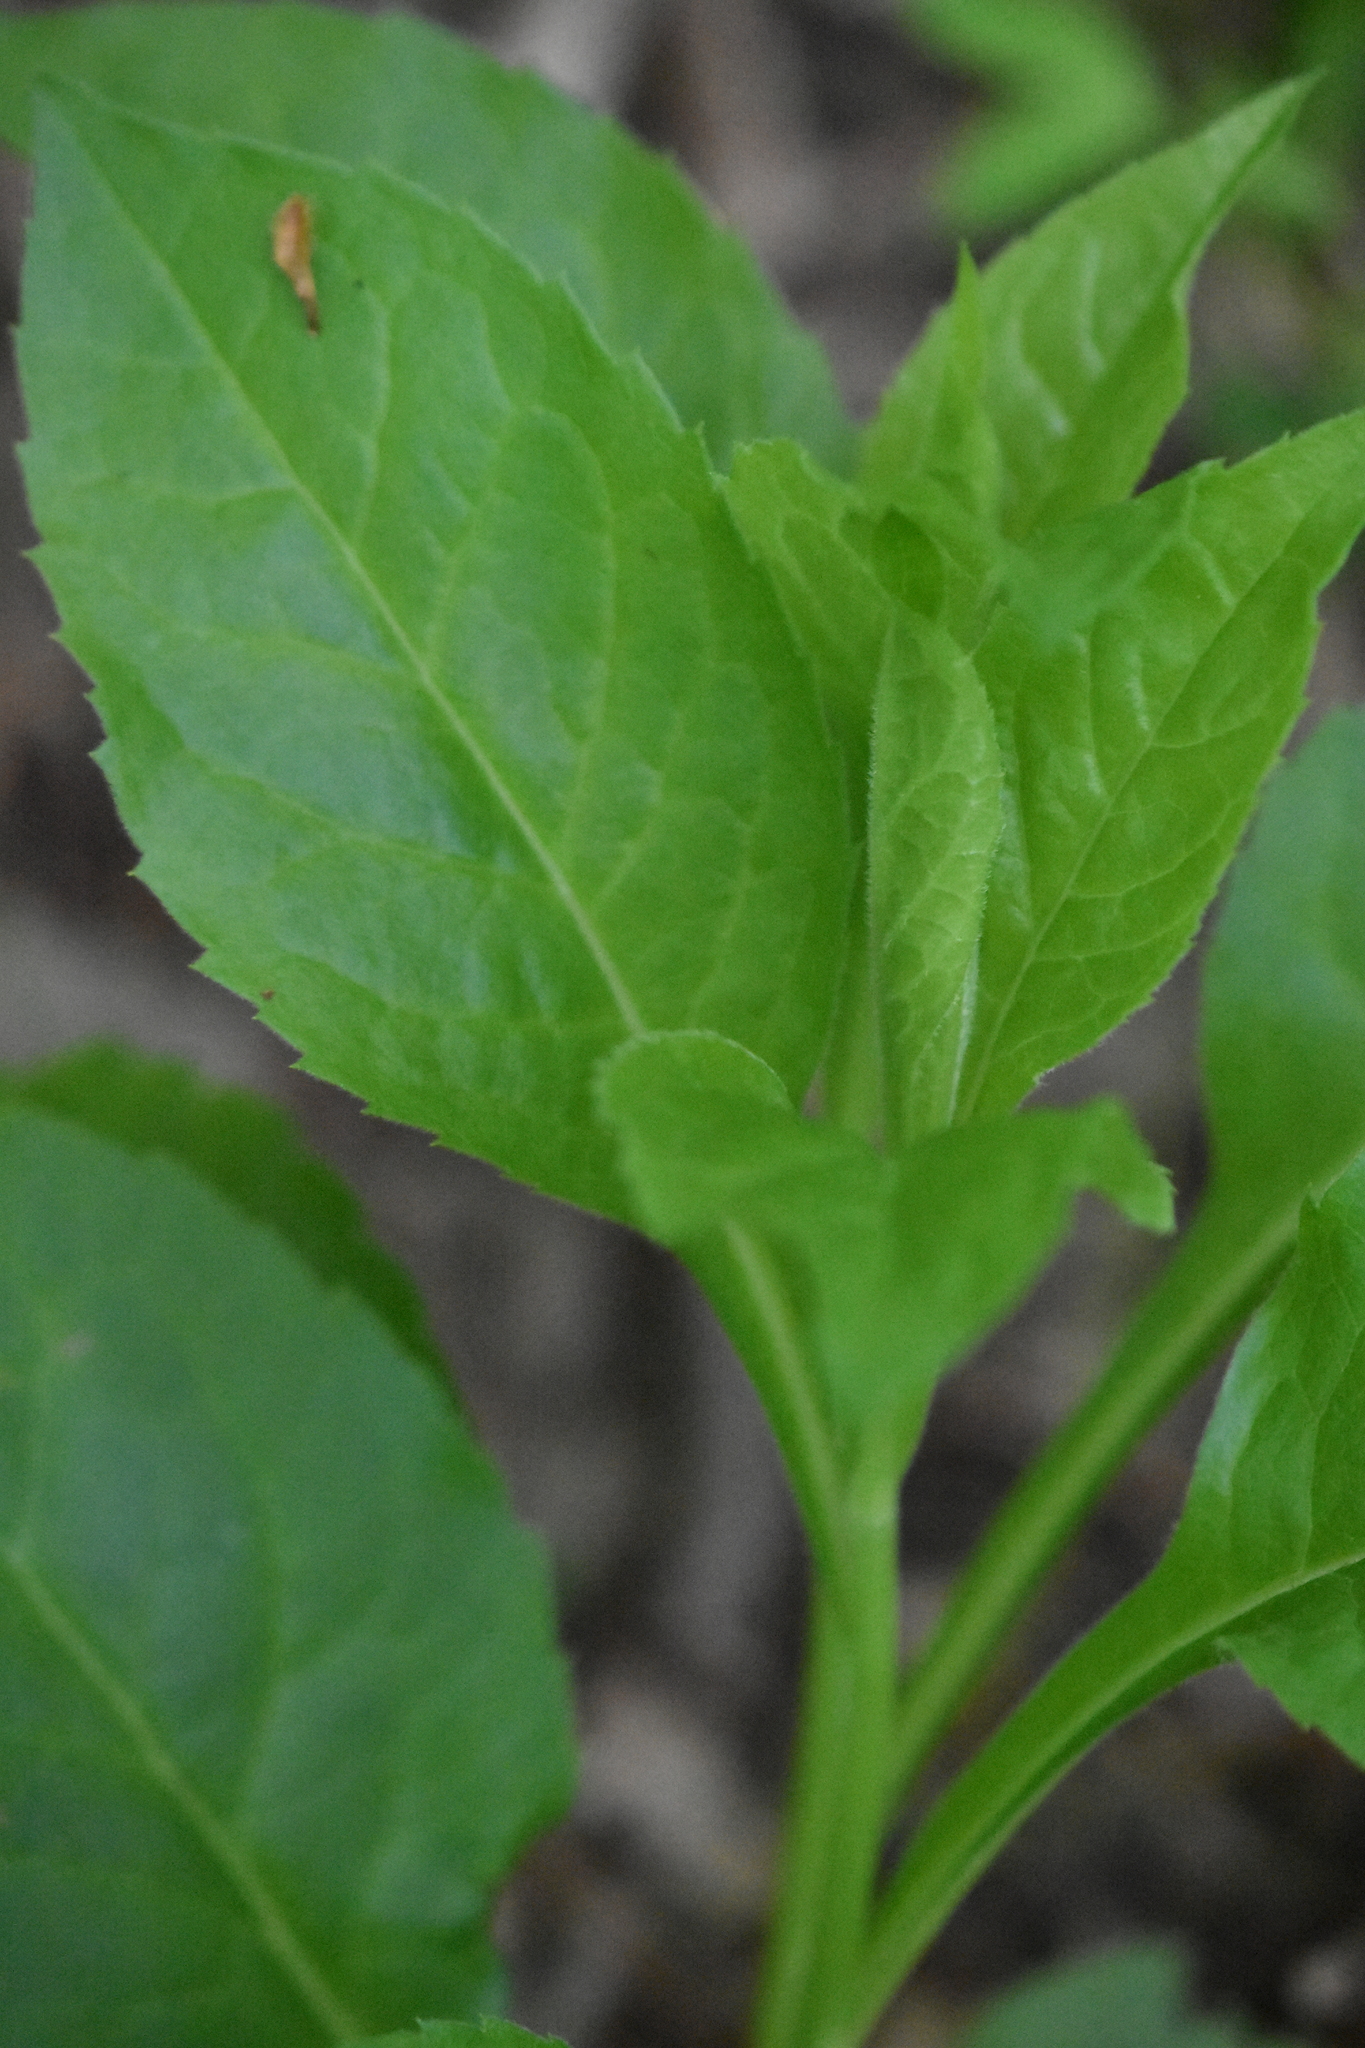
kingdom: Plantae
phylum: Tracheophyta
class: Magnoliopsida
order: Asterales
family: Asteraceae
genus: Solidago
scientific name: Solidago virgaurea
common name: Goldenrod
